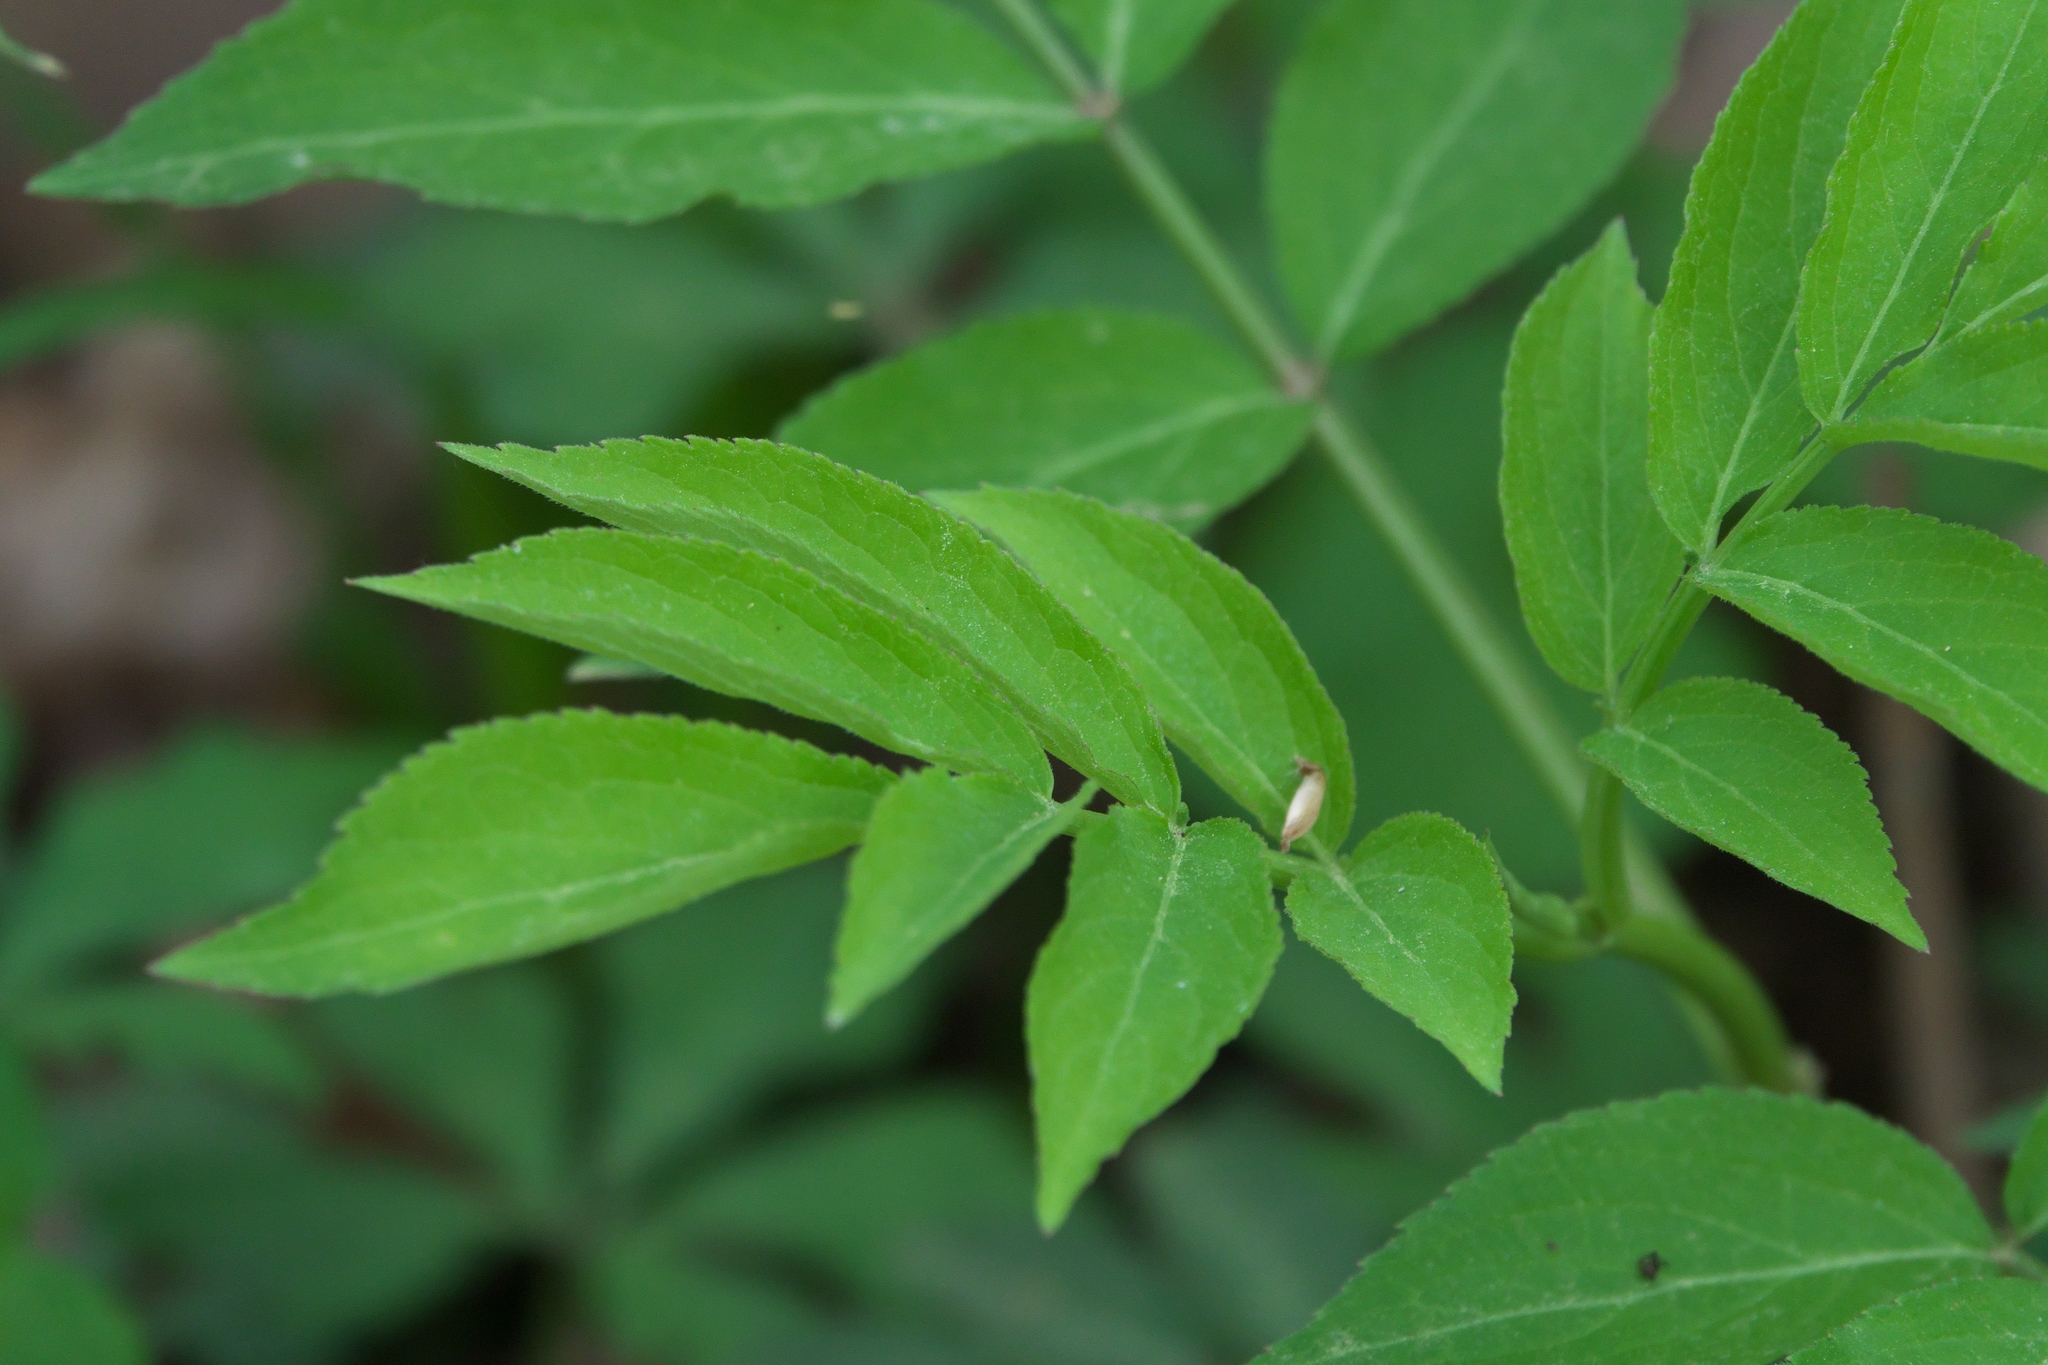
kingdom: Plantae
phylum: Tracheophyta
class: Magnoliopsida
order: Dipsacales
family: Viburnaceae
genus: Sambucus
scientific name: Sambucus canadensis
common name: American elder
